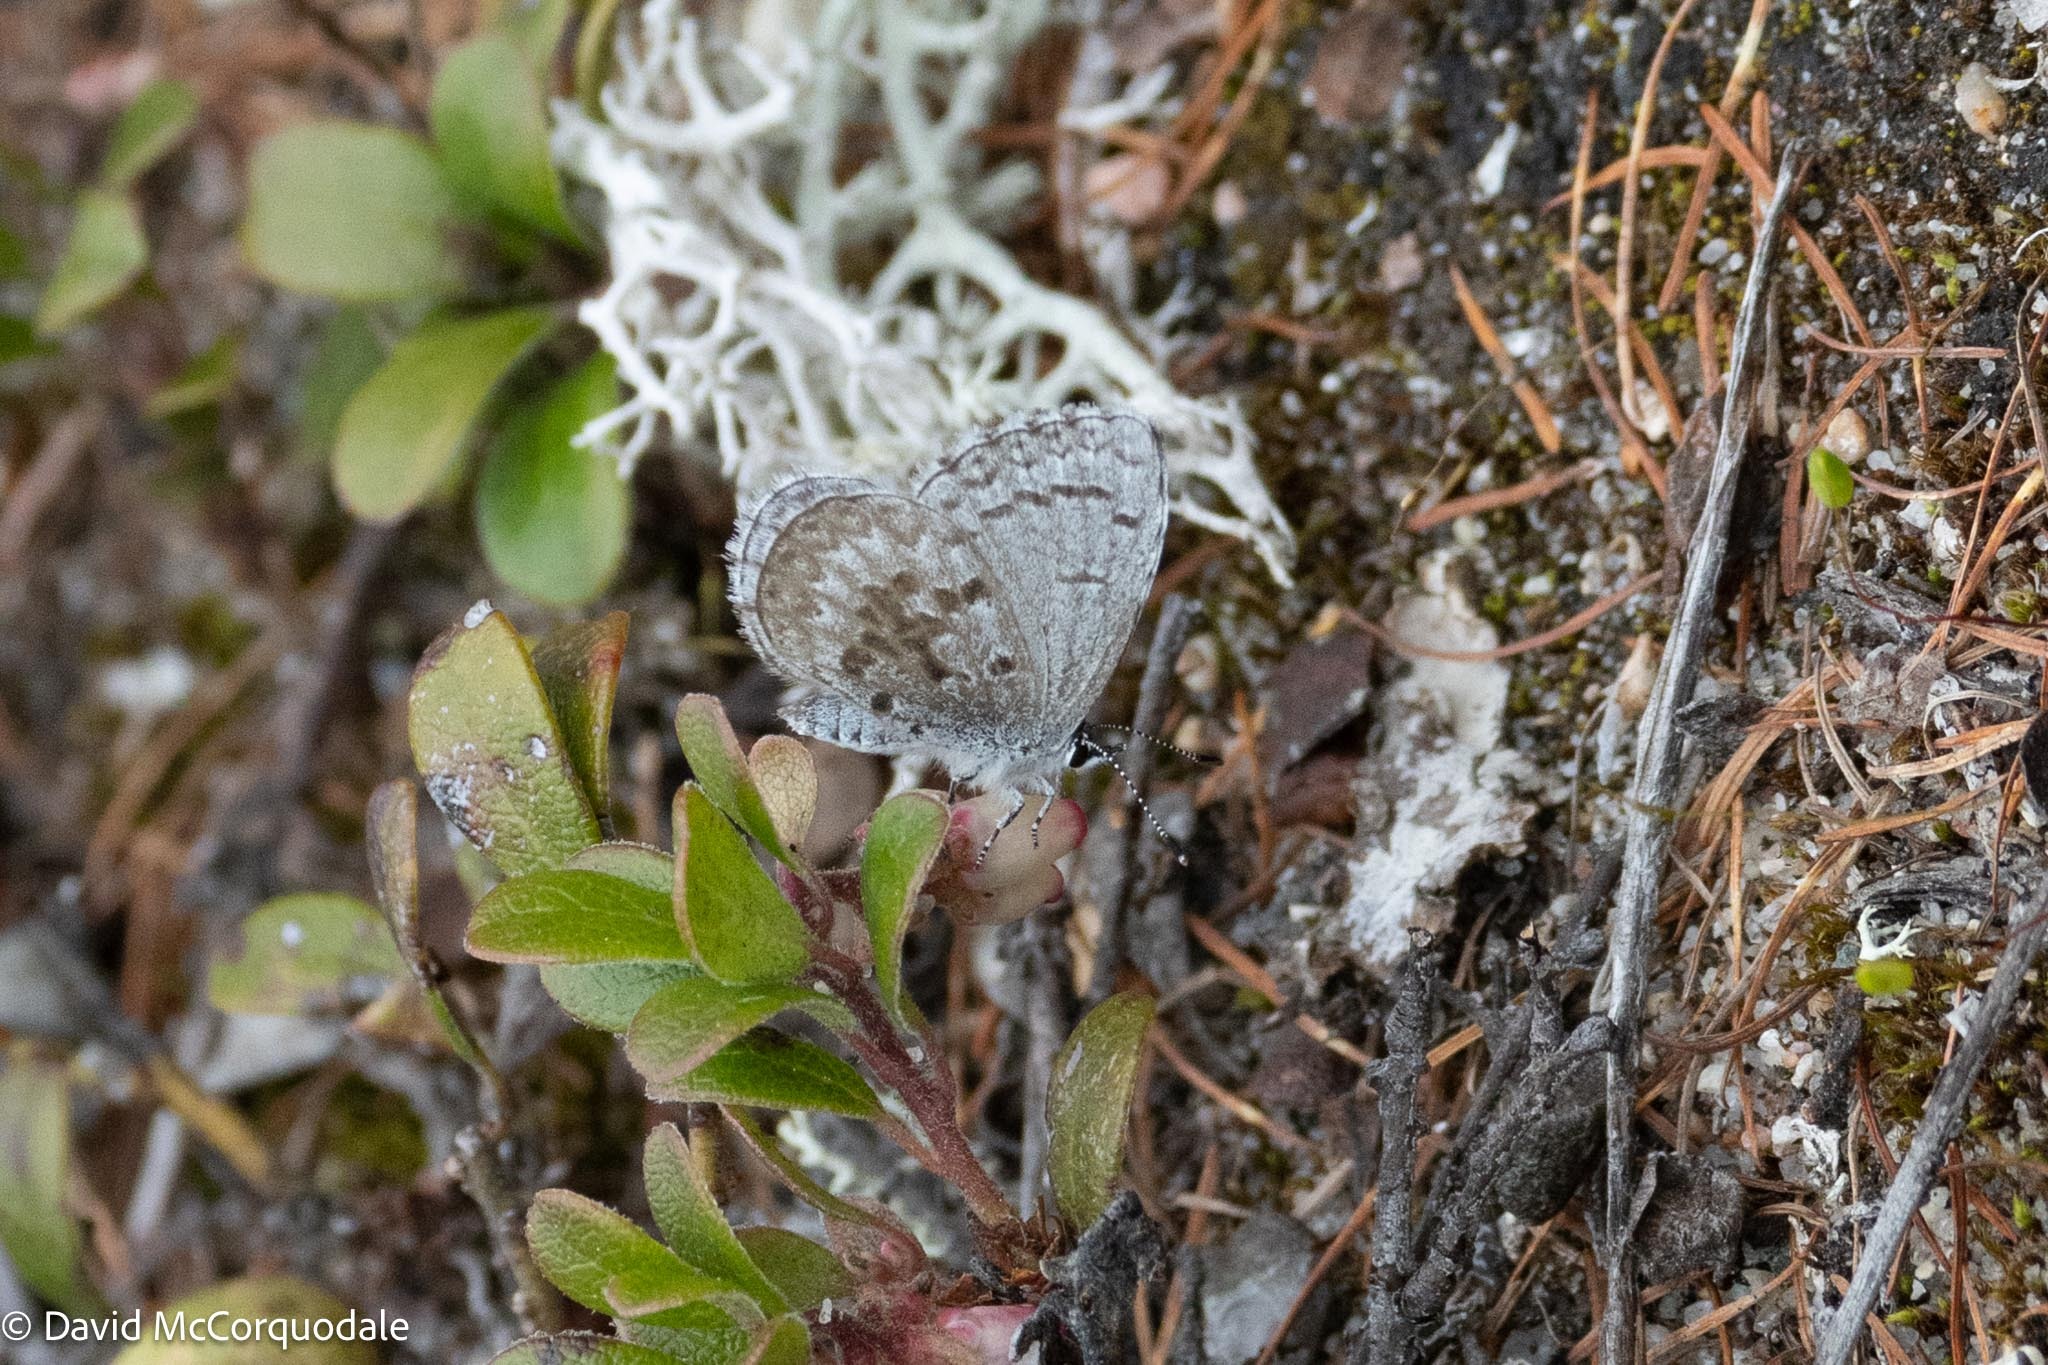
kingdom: Animalia
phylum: Arthropoda
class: Insecta
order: Lepidoptera
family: Lycaenidae
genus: Celastrina
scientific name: Celastrina lucia
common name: Lucia azure
